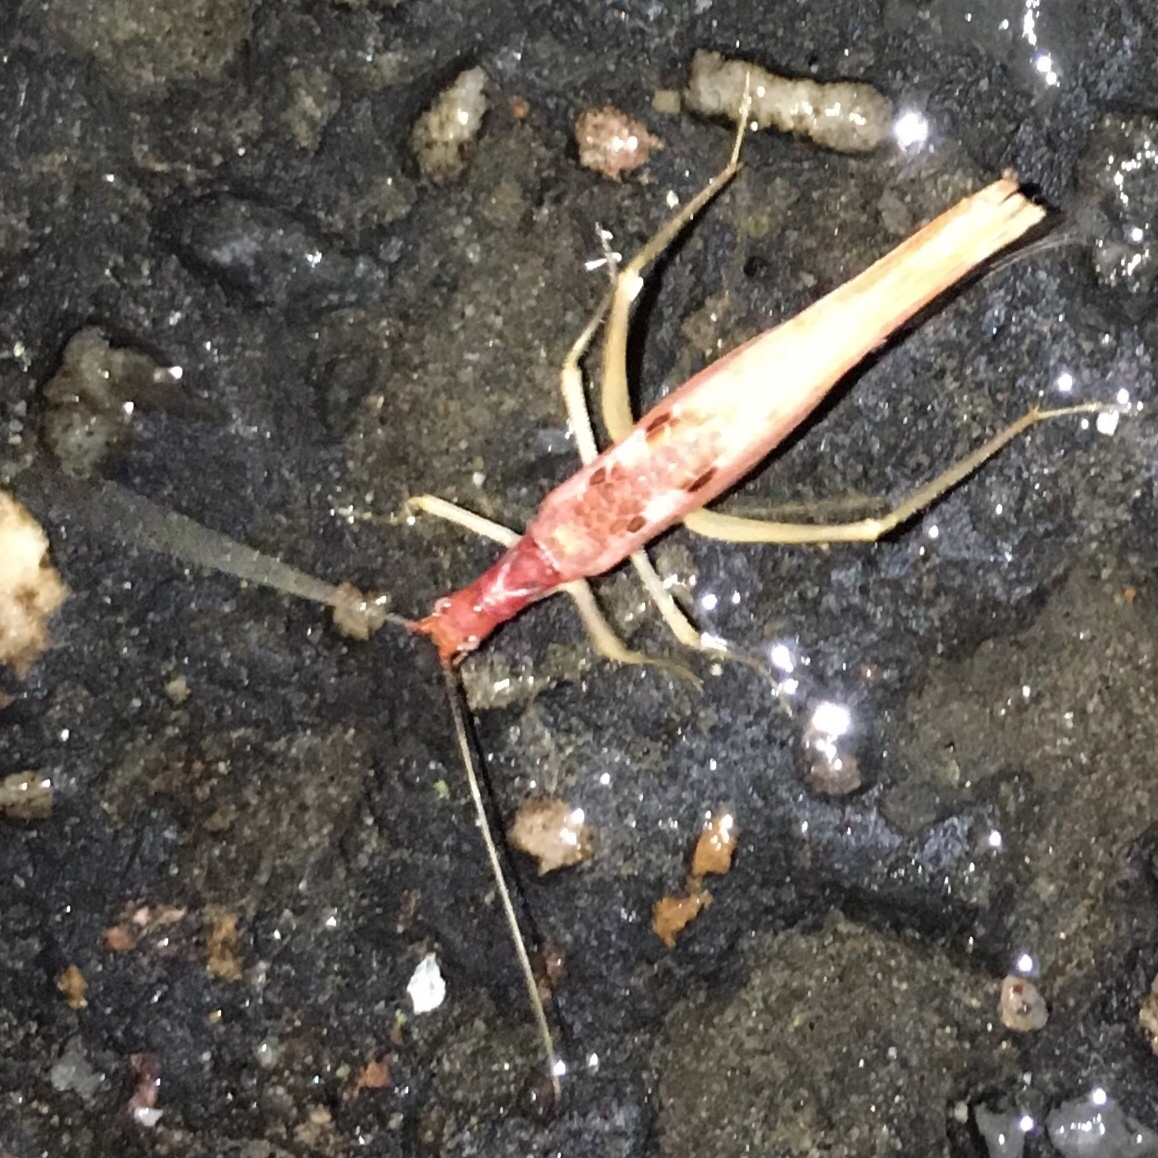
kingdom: Animalia
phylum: Arthropoda
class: Insecta
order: Orthoptera
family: Gryllidae
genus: Neoxabea
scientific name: Neoxabea bipunctata
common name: Two-spotted tree cricket
